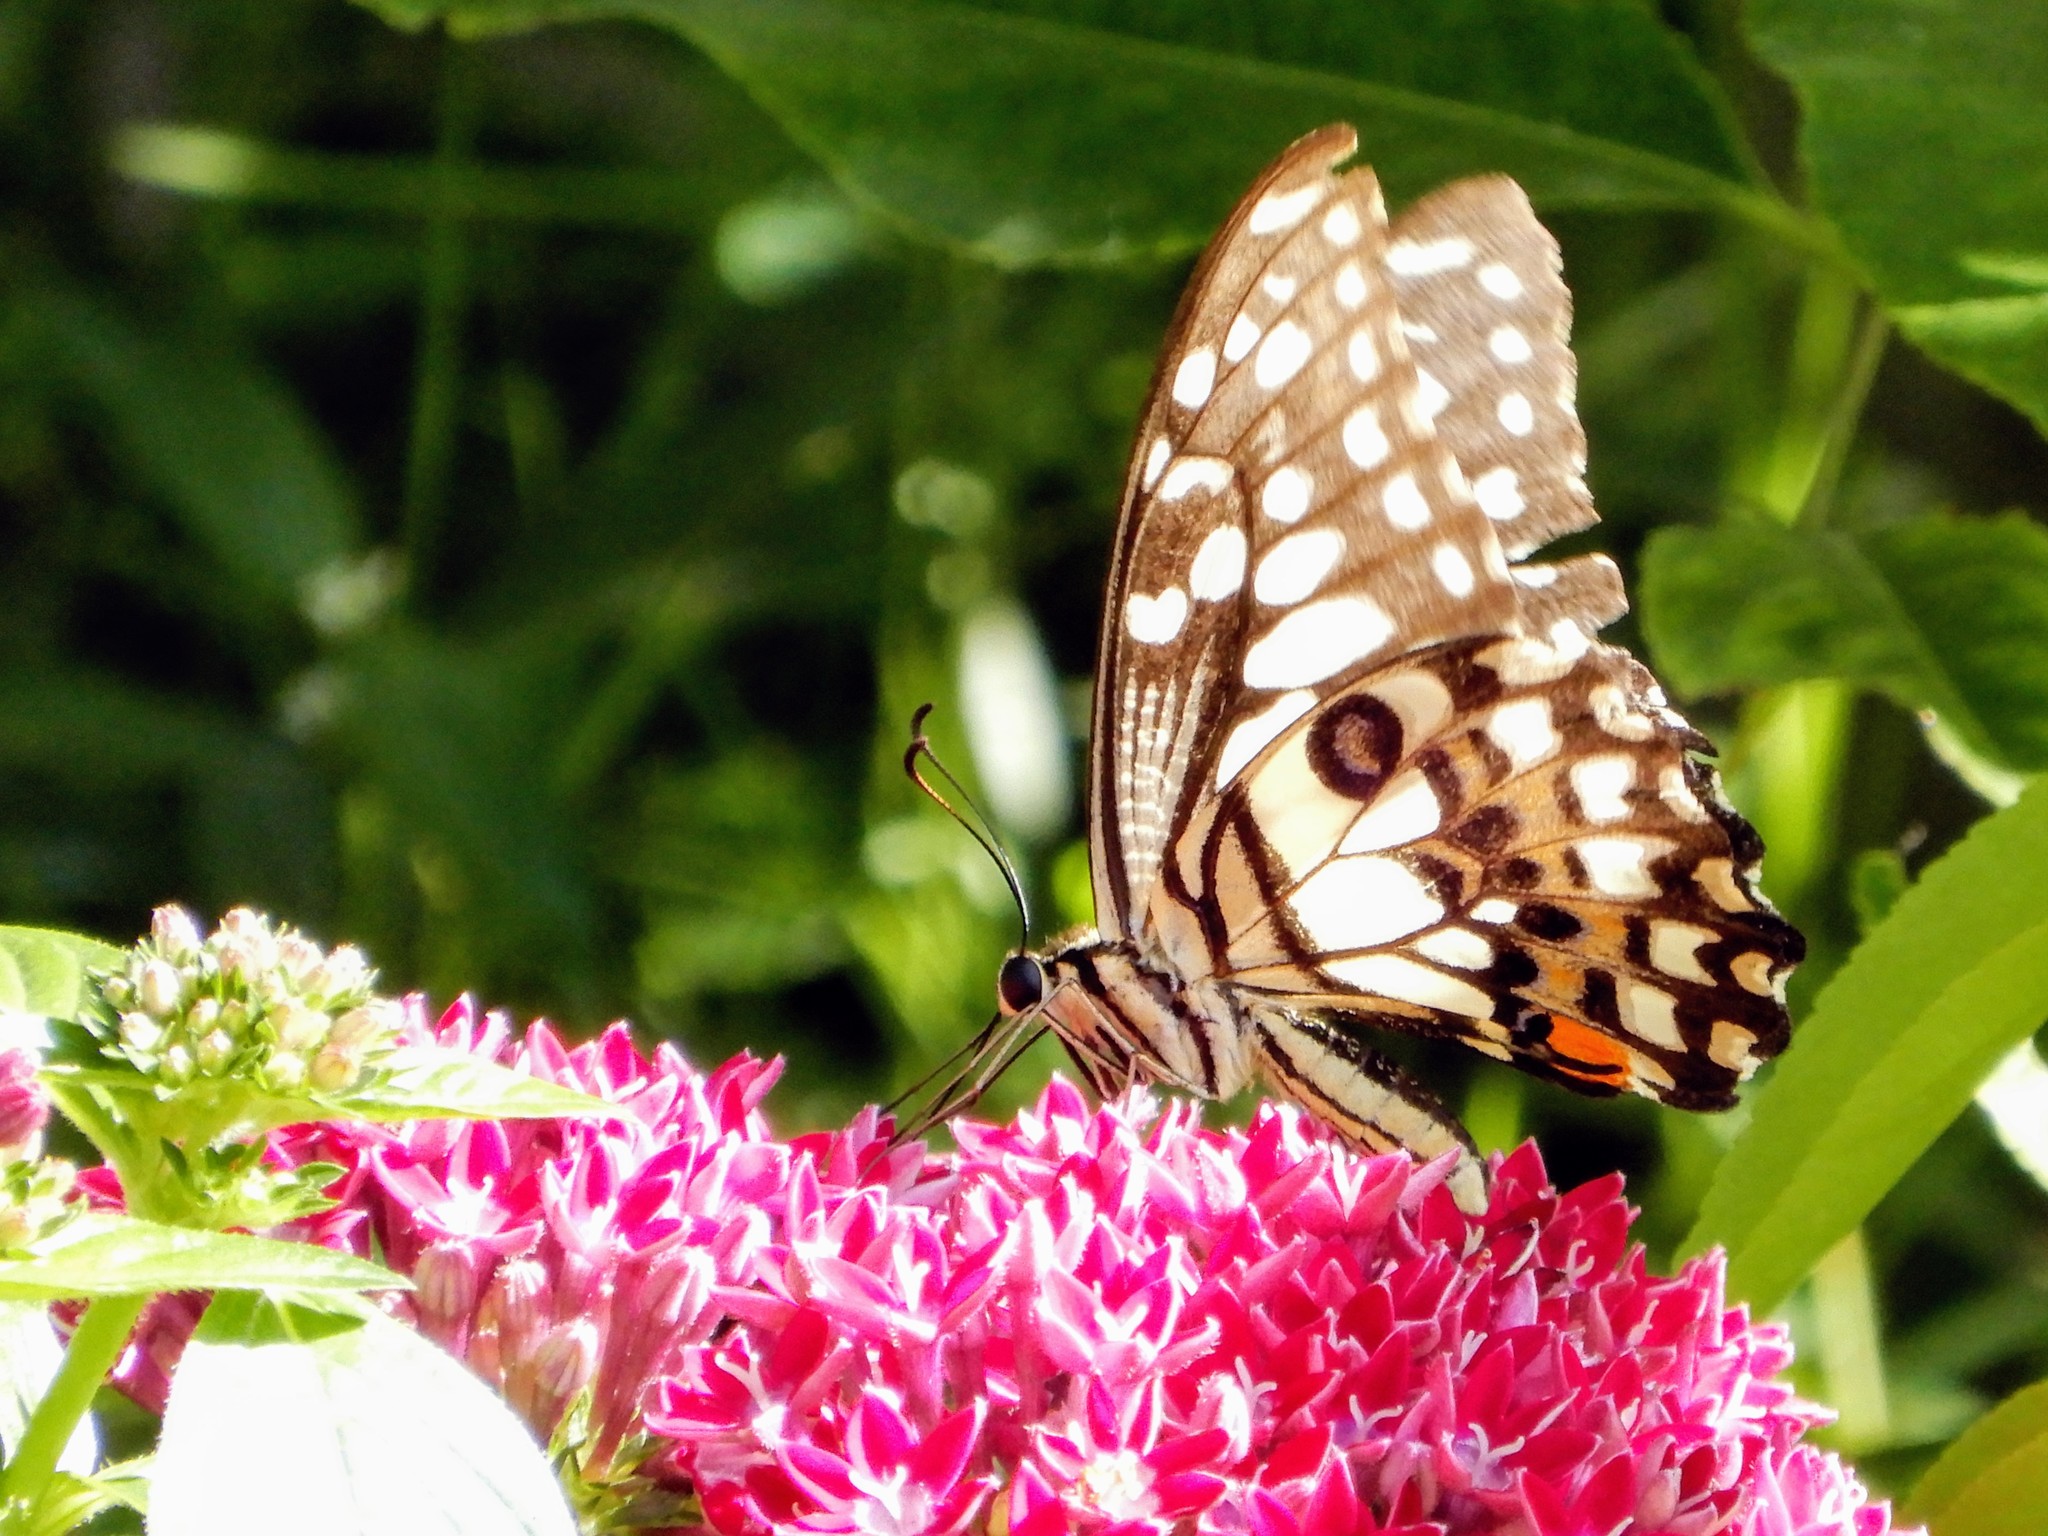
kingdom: Animalia
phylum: Arthropoda
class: Insecta
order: Lepidoptera
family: Papilionidae
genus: Papilio
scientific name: Papilio demoleus
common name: Lime butterfly
